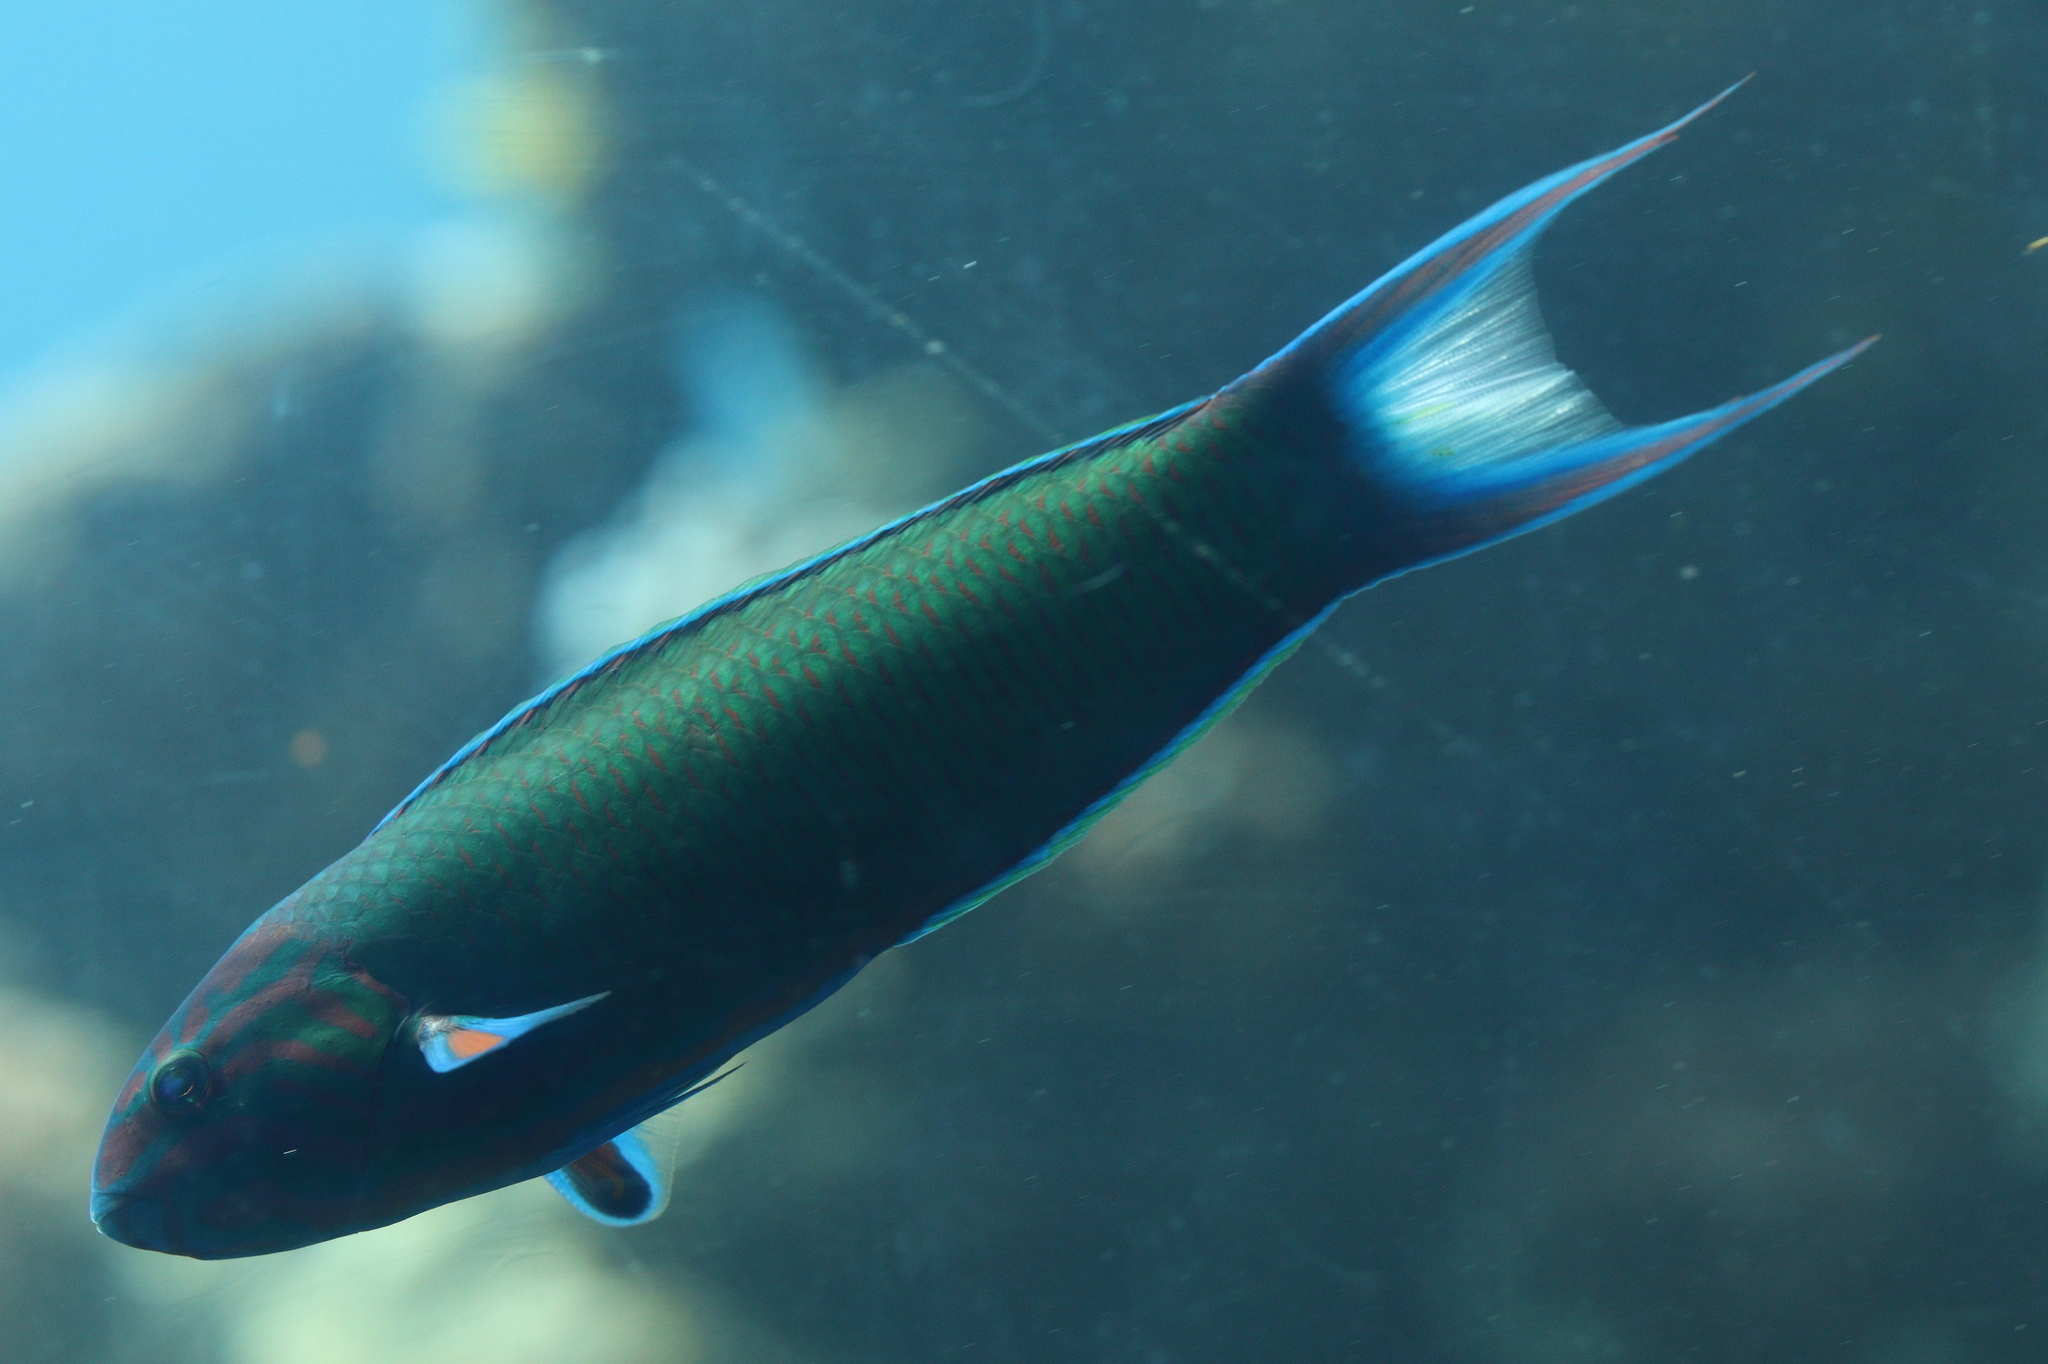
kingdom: Animalia
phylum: Chordata
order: Perciformes
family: Labridae
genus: Thalassoma
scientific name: Thalassoma lunare
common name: Blue wrasse
